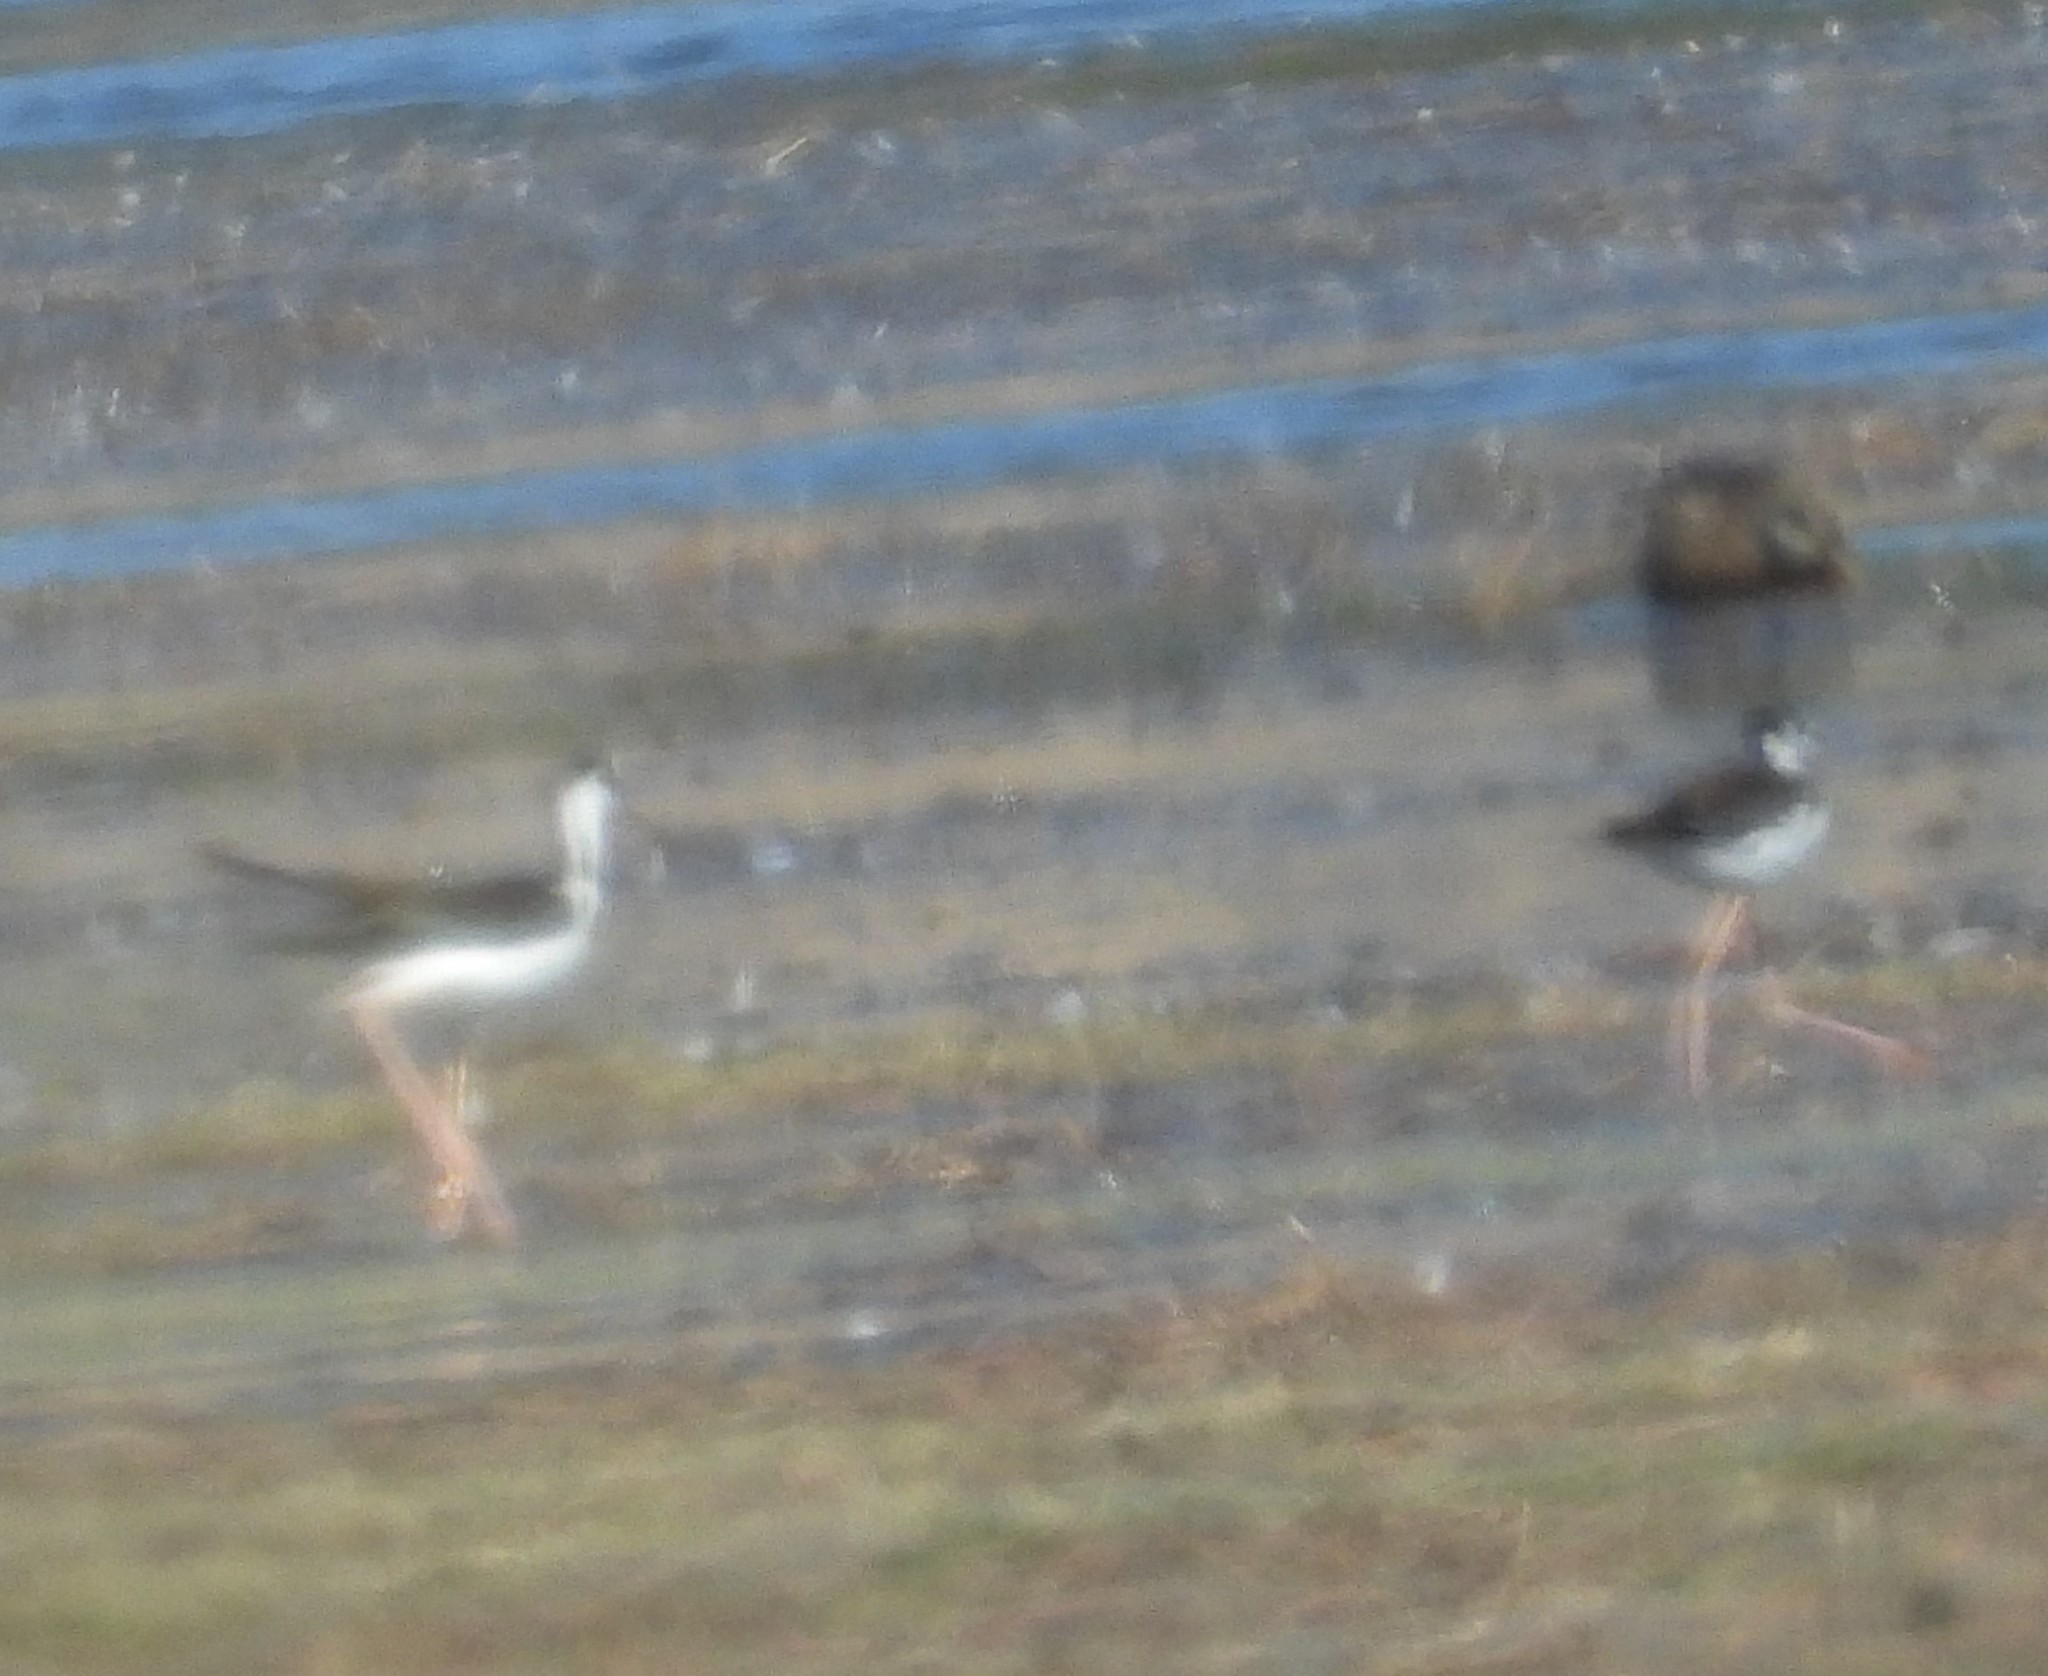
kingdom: Animalia
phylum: Chordata
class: Aves
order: Charadriiformes
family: Recurvirostridae
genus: Himantopus
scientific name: Himantopus mexicanus
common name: Black-necked stilt
